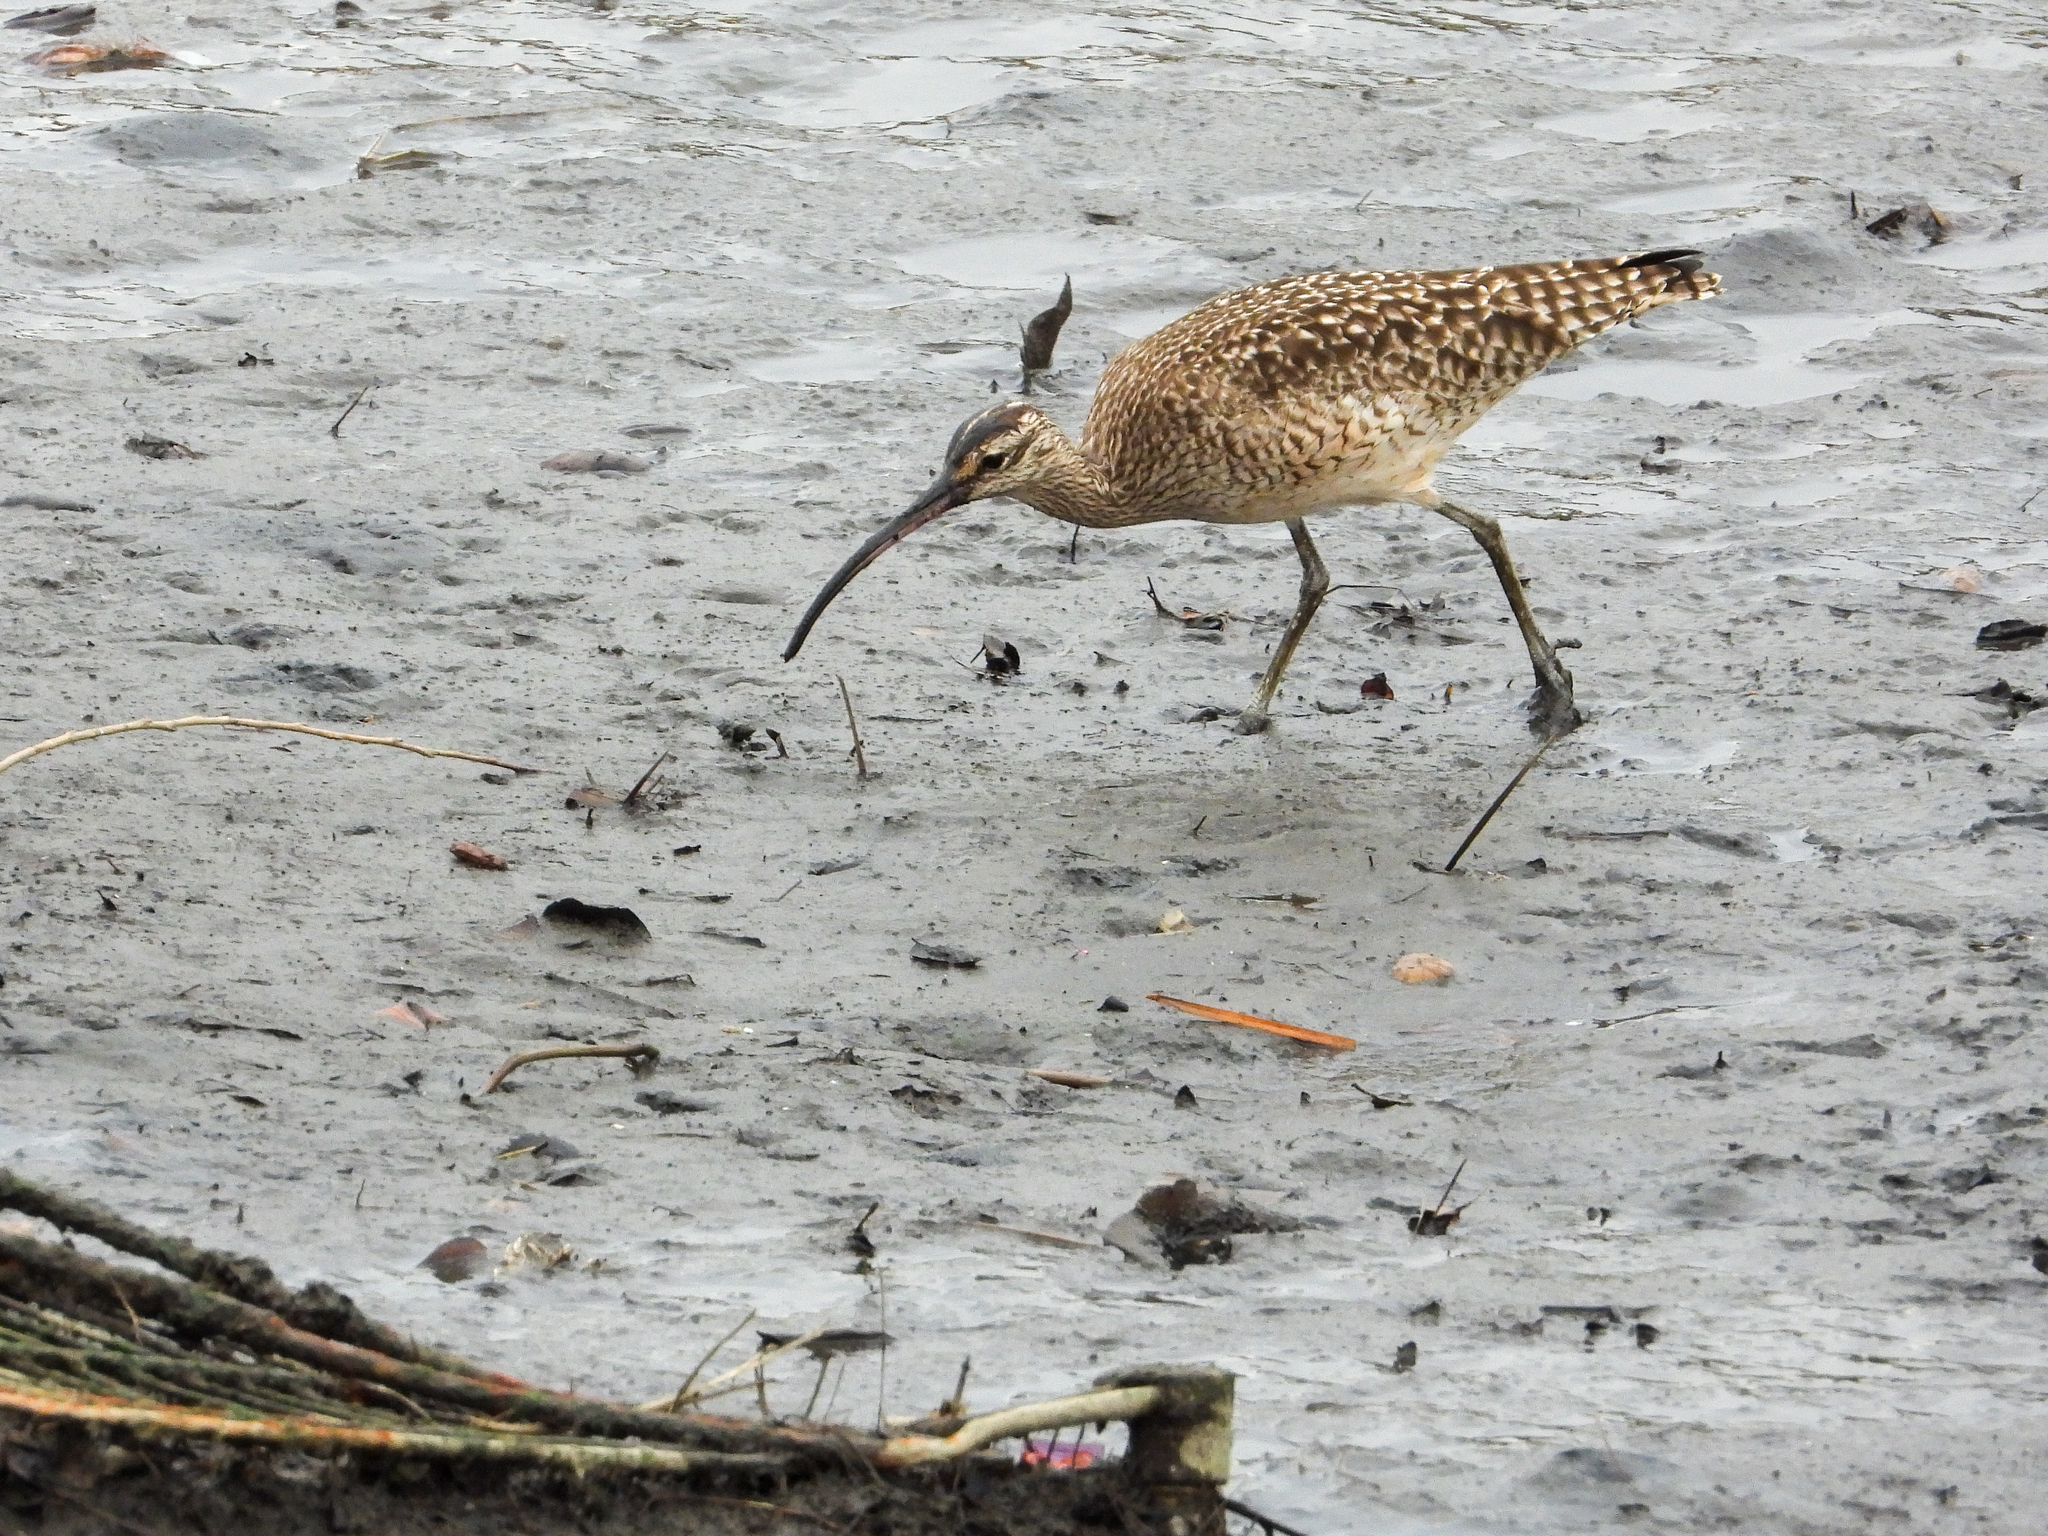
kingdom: Animalia
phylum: Chordata
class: Aves
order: Charadriiformes
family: Scolopacidae
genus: Numenius
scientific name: Numenius phaeopus
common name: Whimbrel
